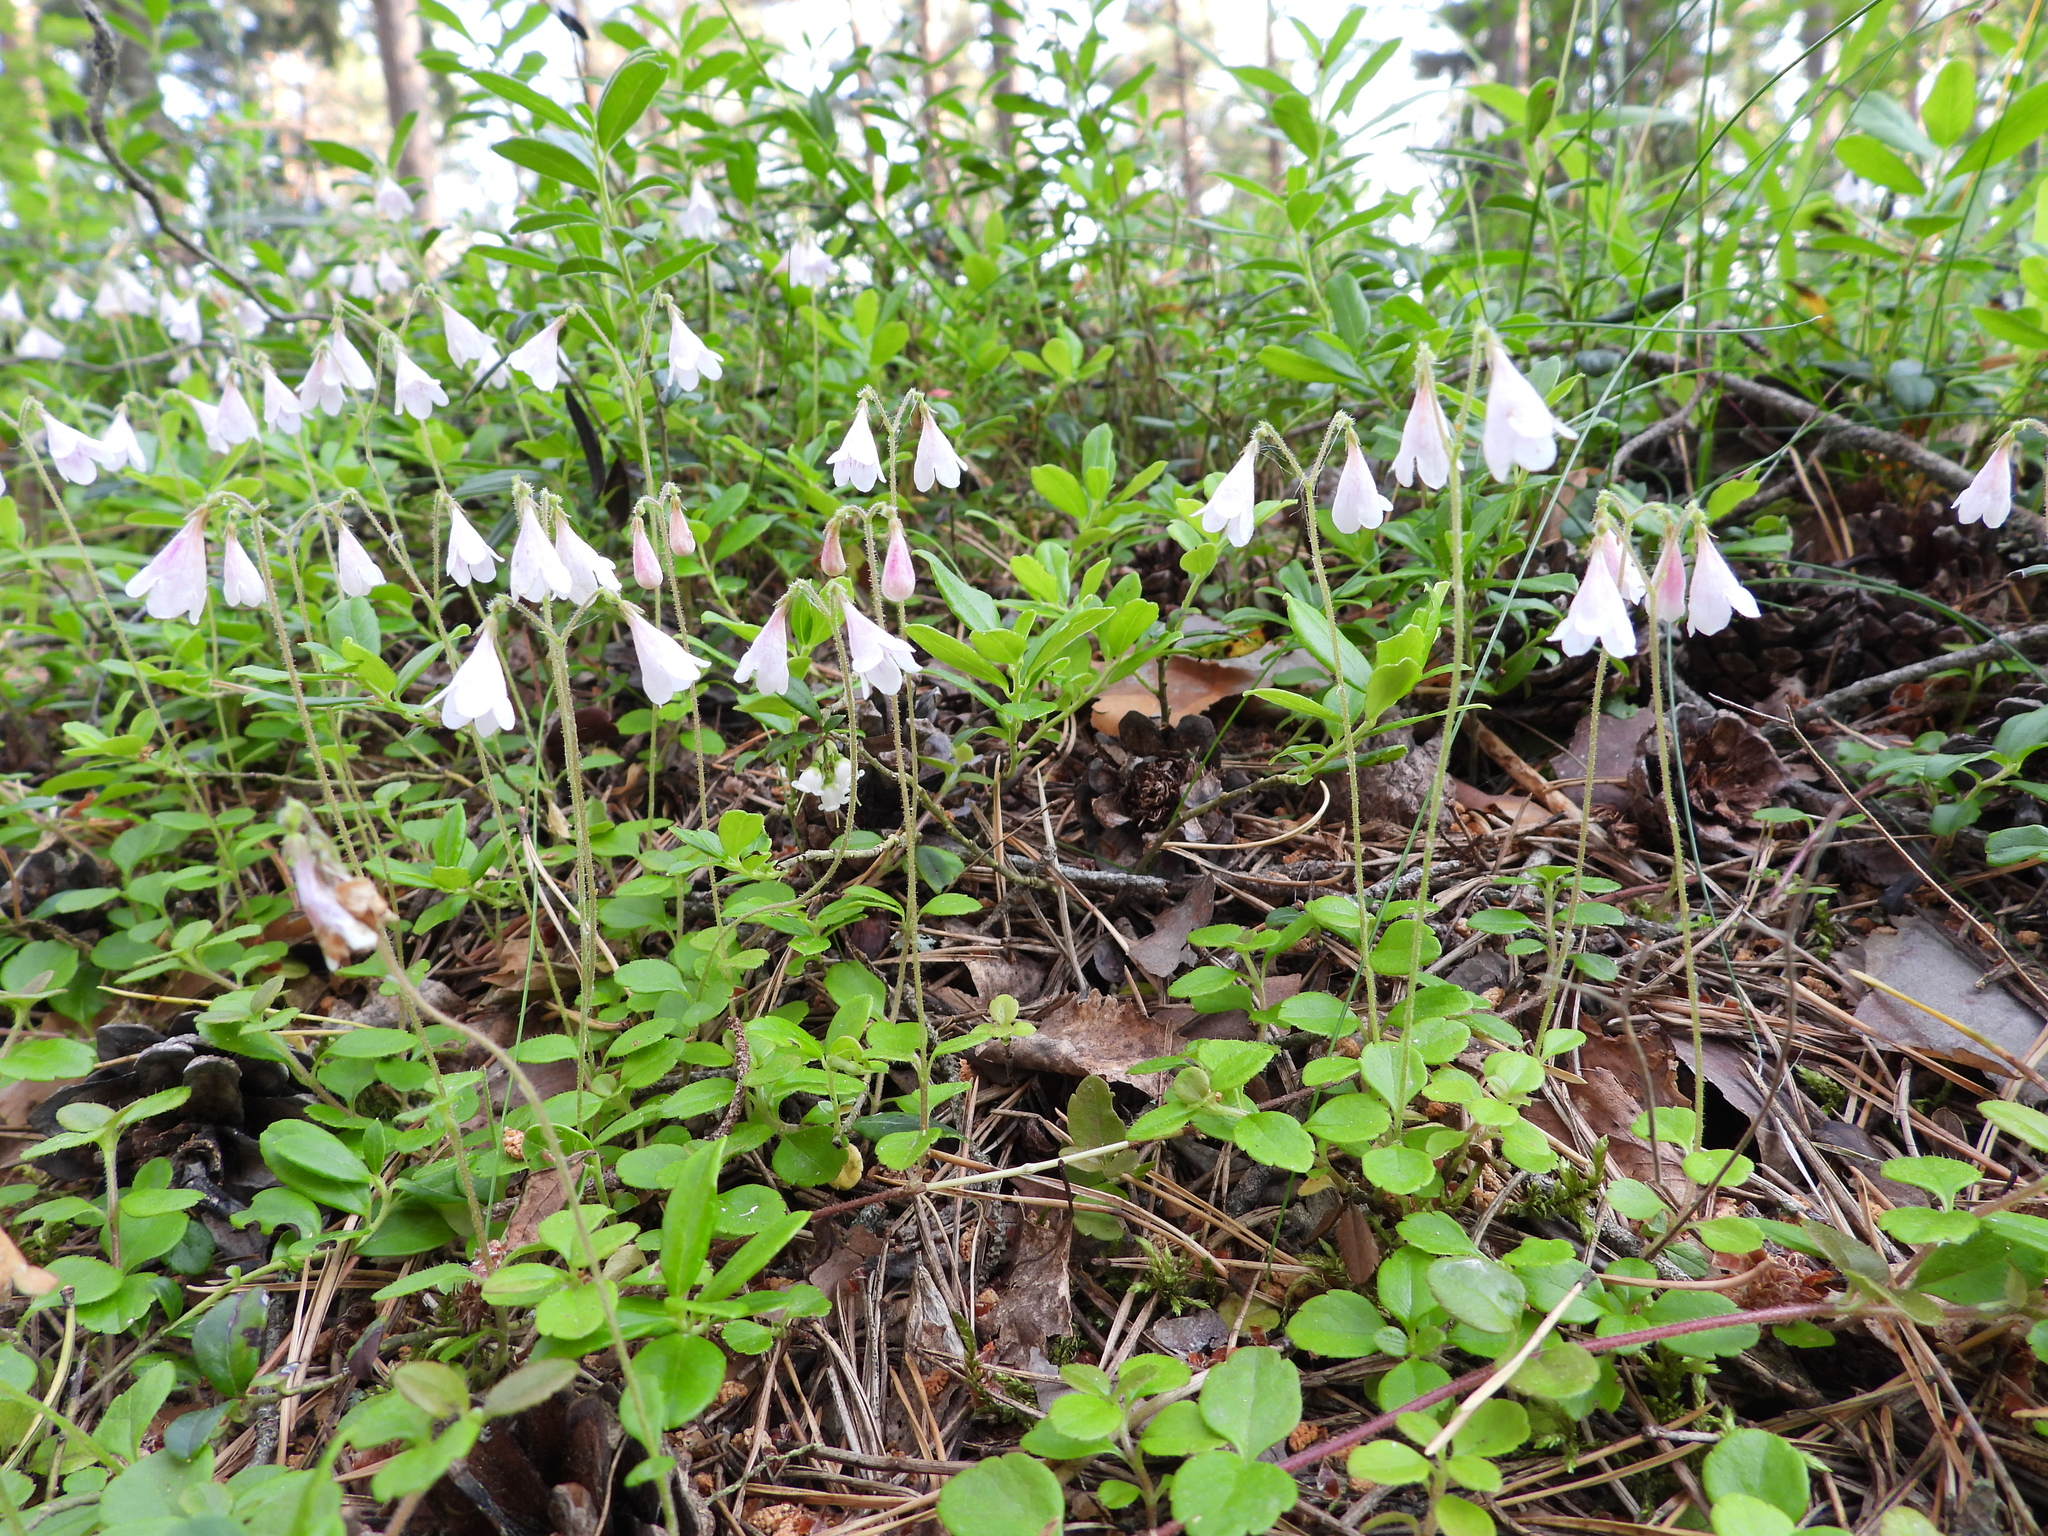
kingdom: Plantae
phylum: Tracheophyta
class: Magnoliopsida
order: Dipsacales
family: Caprifoliaceae
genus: Linnaea
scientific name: Linnaea borealis
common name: Twinflower
